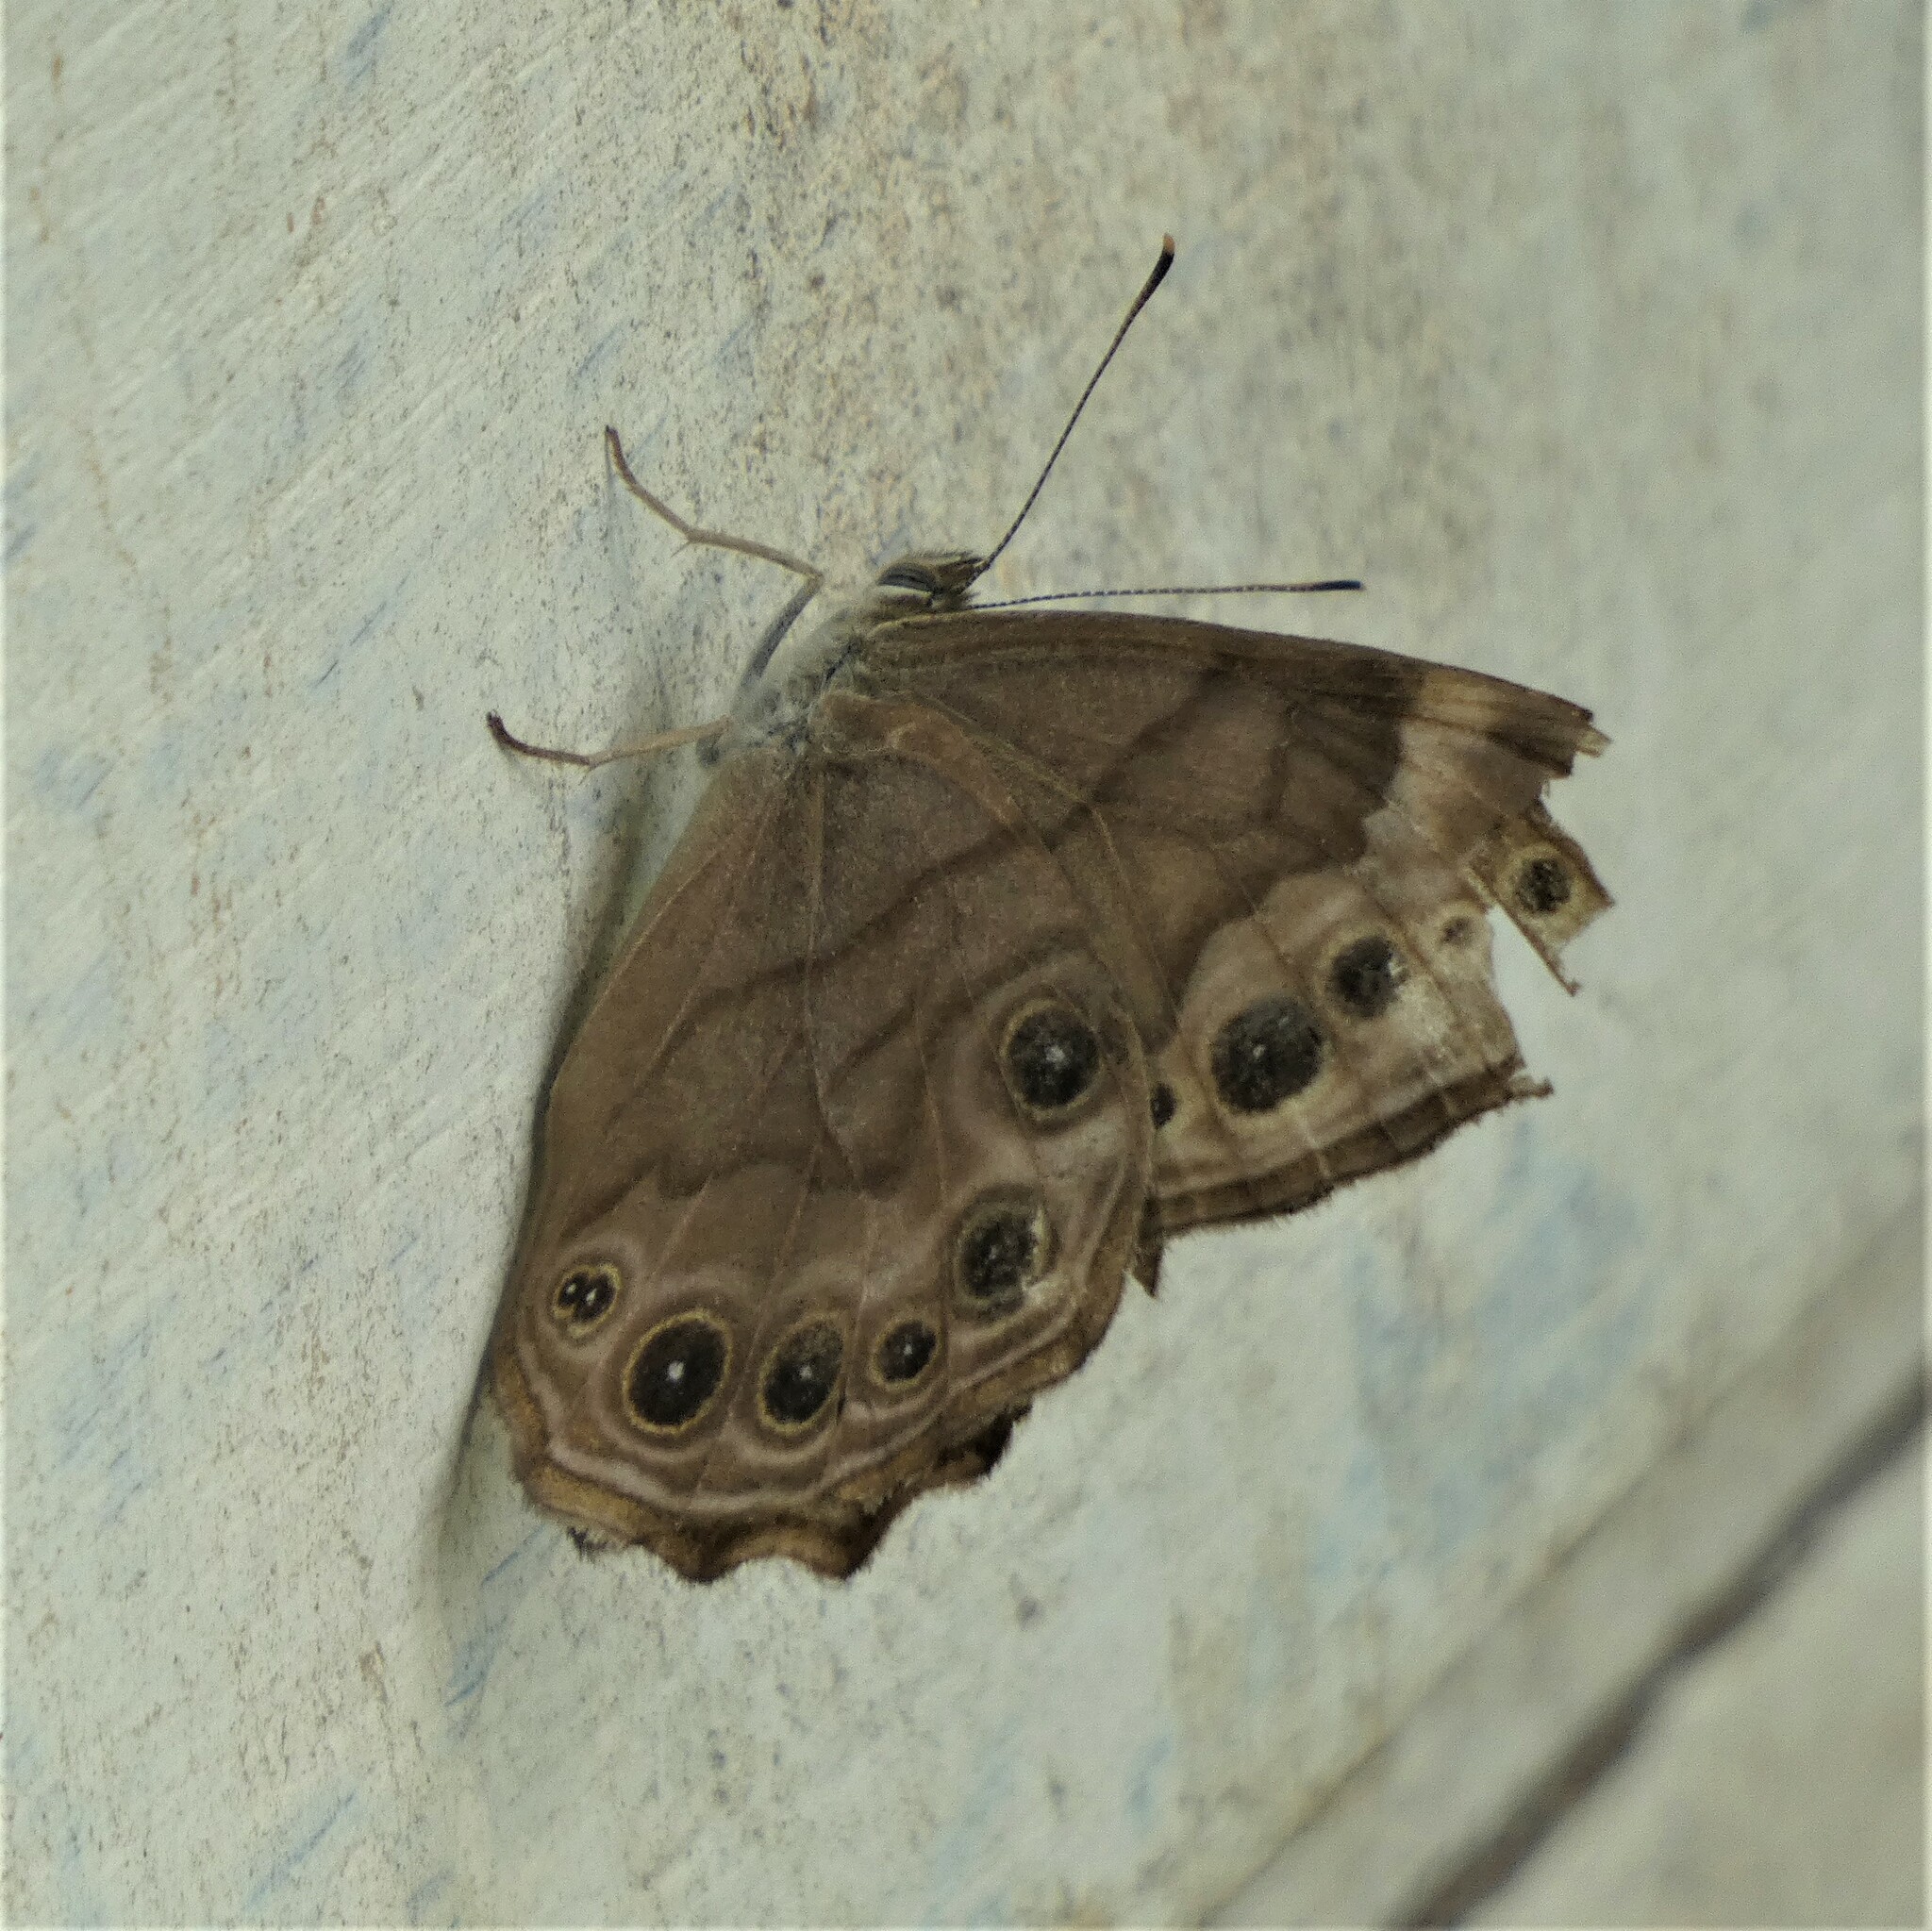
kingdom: Animalia
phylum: Arthropoda
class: Insecta
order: Lepidoptera
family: Nymphalidae
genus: Lethe
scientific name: Lethe anthedon
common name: Northern pearly-eye
